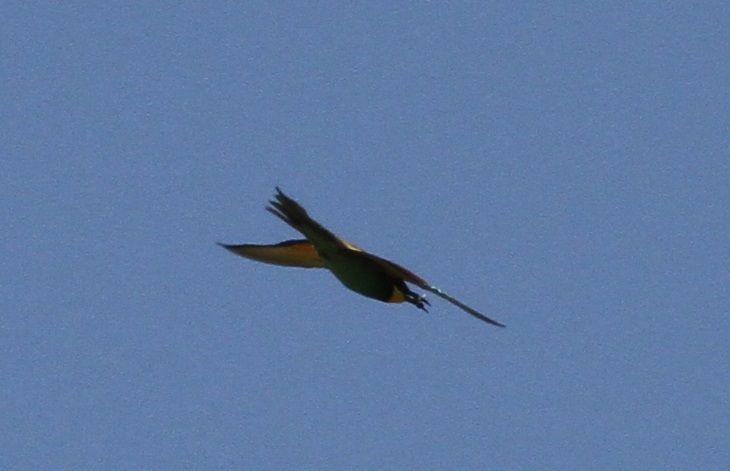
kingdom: Animalia
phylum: Chordata
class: Aves
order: Coraciiformes
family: Meropidae
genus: Merops
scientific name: Merops apiaster
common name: European bee-eater
